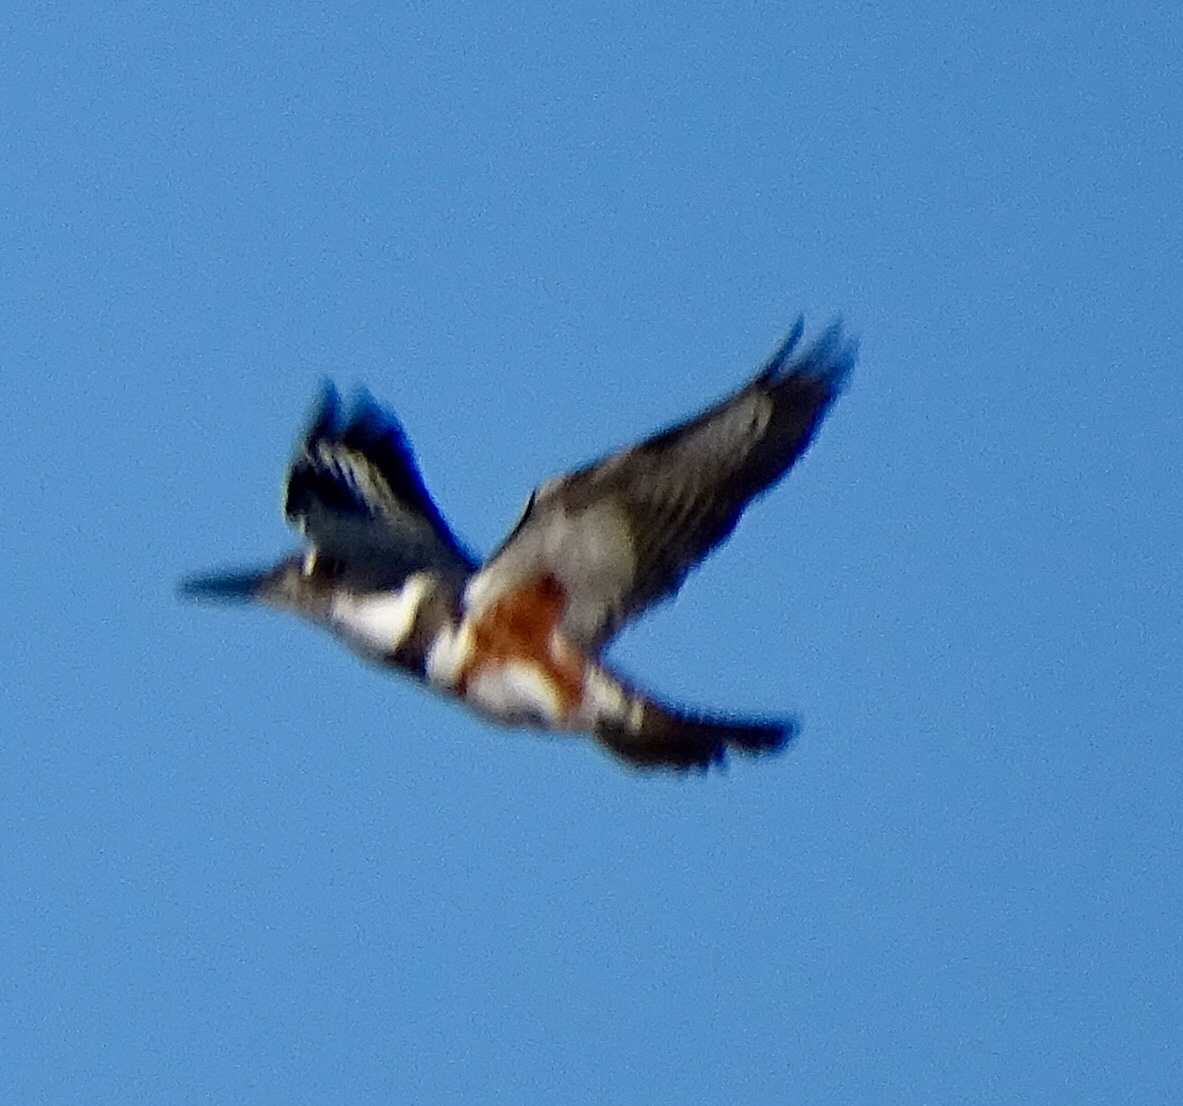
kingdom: Animalia
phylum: Chordata
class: Aves
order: Coraciiformes
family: Alcedinidae
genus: Megaceryle
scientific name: Megaceryle alcyon
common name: Belted kingfisher
